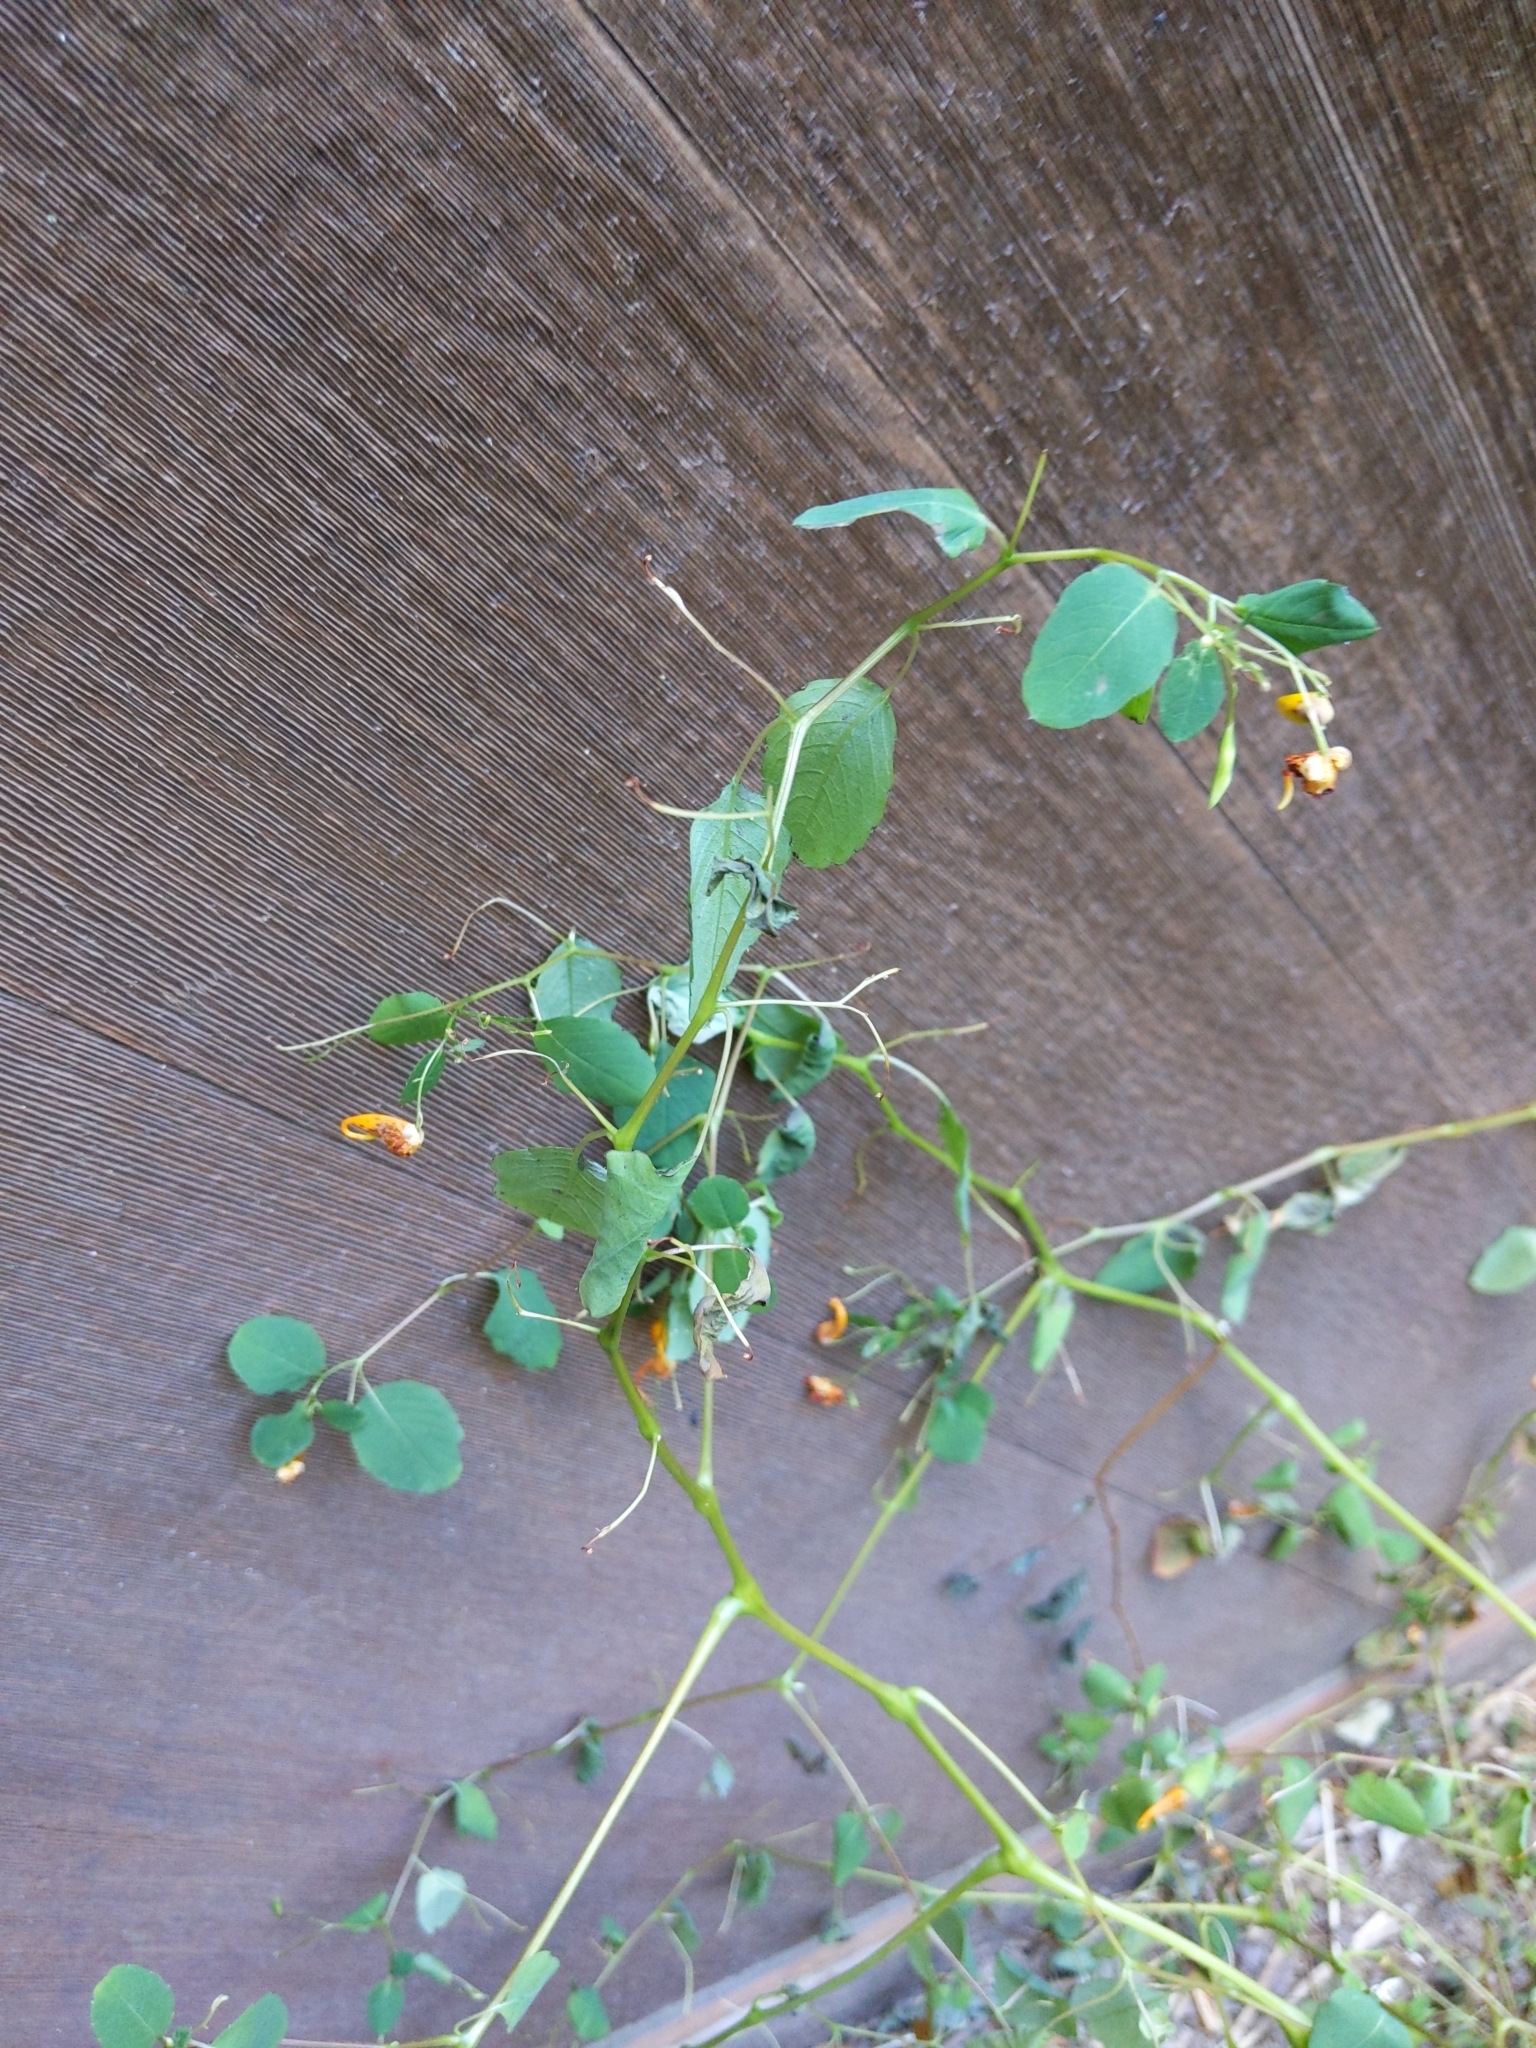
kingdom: Plantae
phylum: Tracheophyta
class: Magnoliopsida
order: Ericales
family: Balsaminaceae
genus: Impatiens
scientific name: Impatiens capensis
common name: Orange balsam
